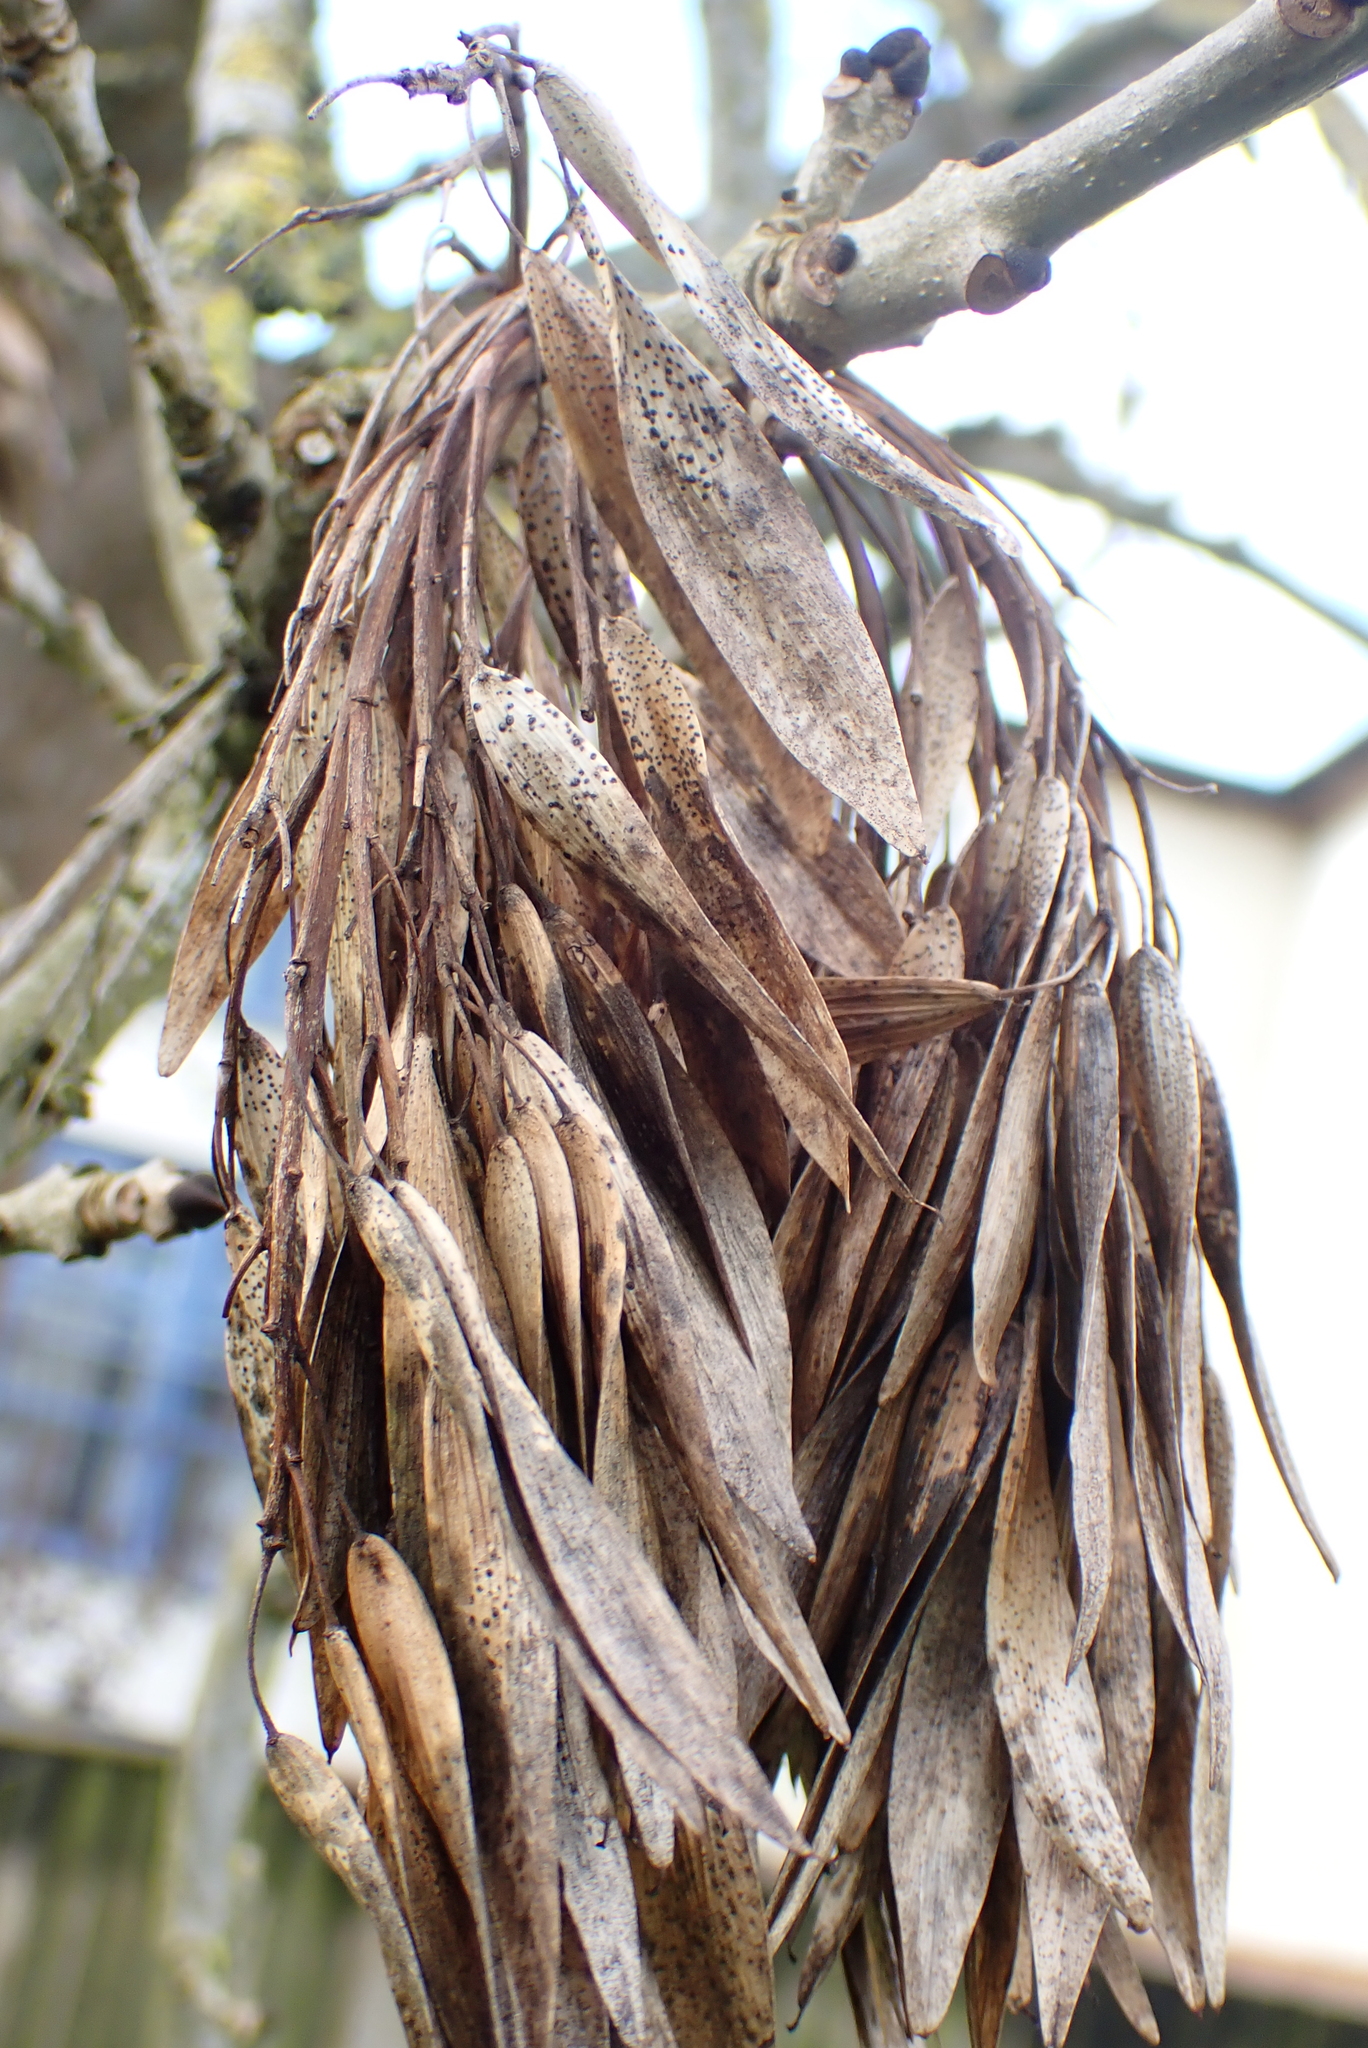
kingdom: Plantae
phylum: Tracheophyta
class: Magnoliopsida
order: Lamiales
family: Oleaceae
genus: Fraxinus
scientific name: Fraxinus excelsior
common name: European ash
